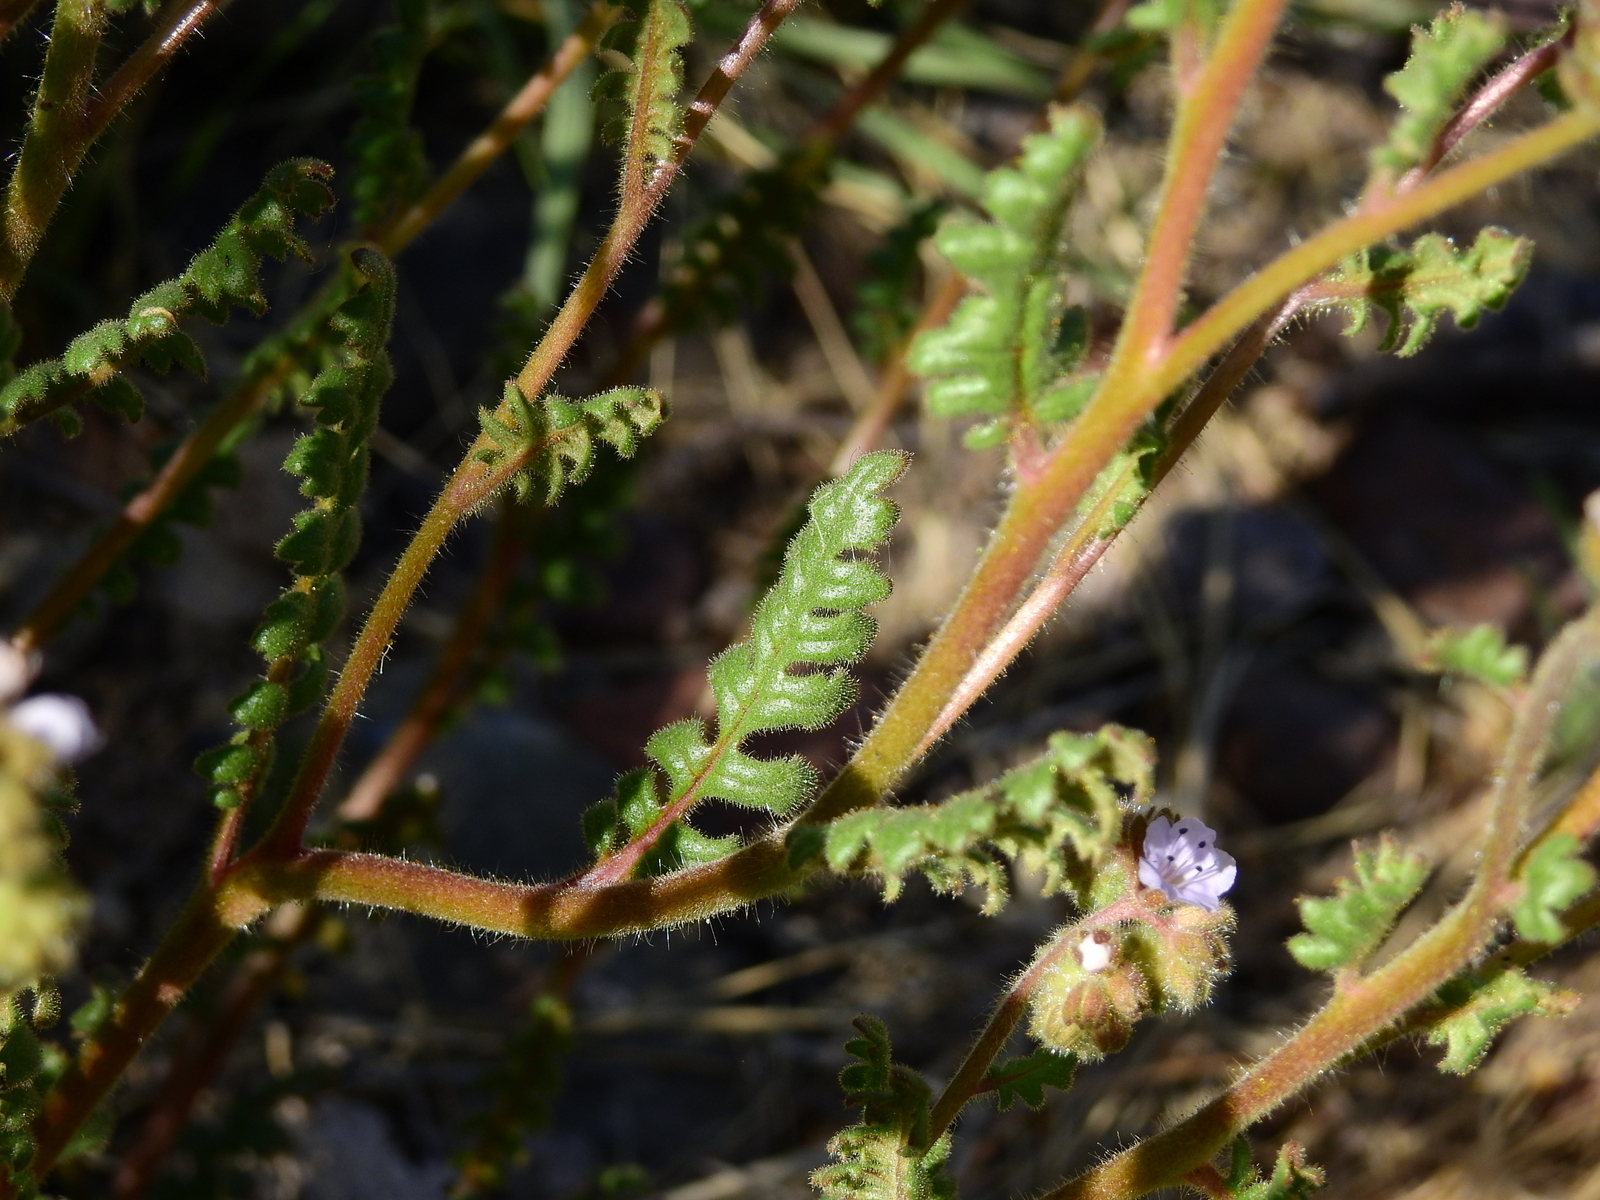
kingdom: Plantae
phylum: Tracheophyta
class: Magnoliopsida
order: Boraginales
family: Hydrophyllaceae
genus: Phacelia
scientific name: Phacelia pinnatifida
